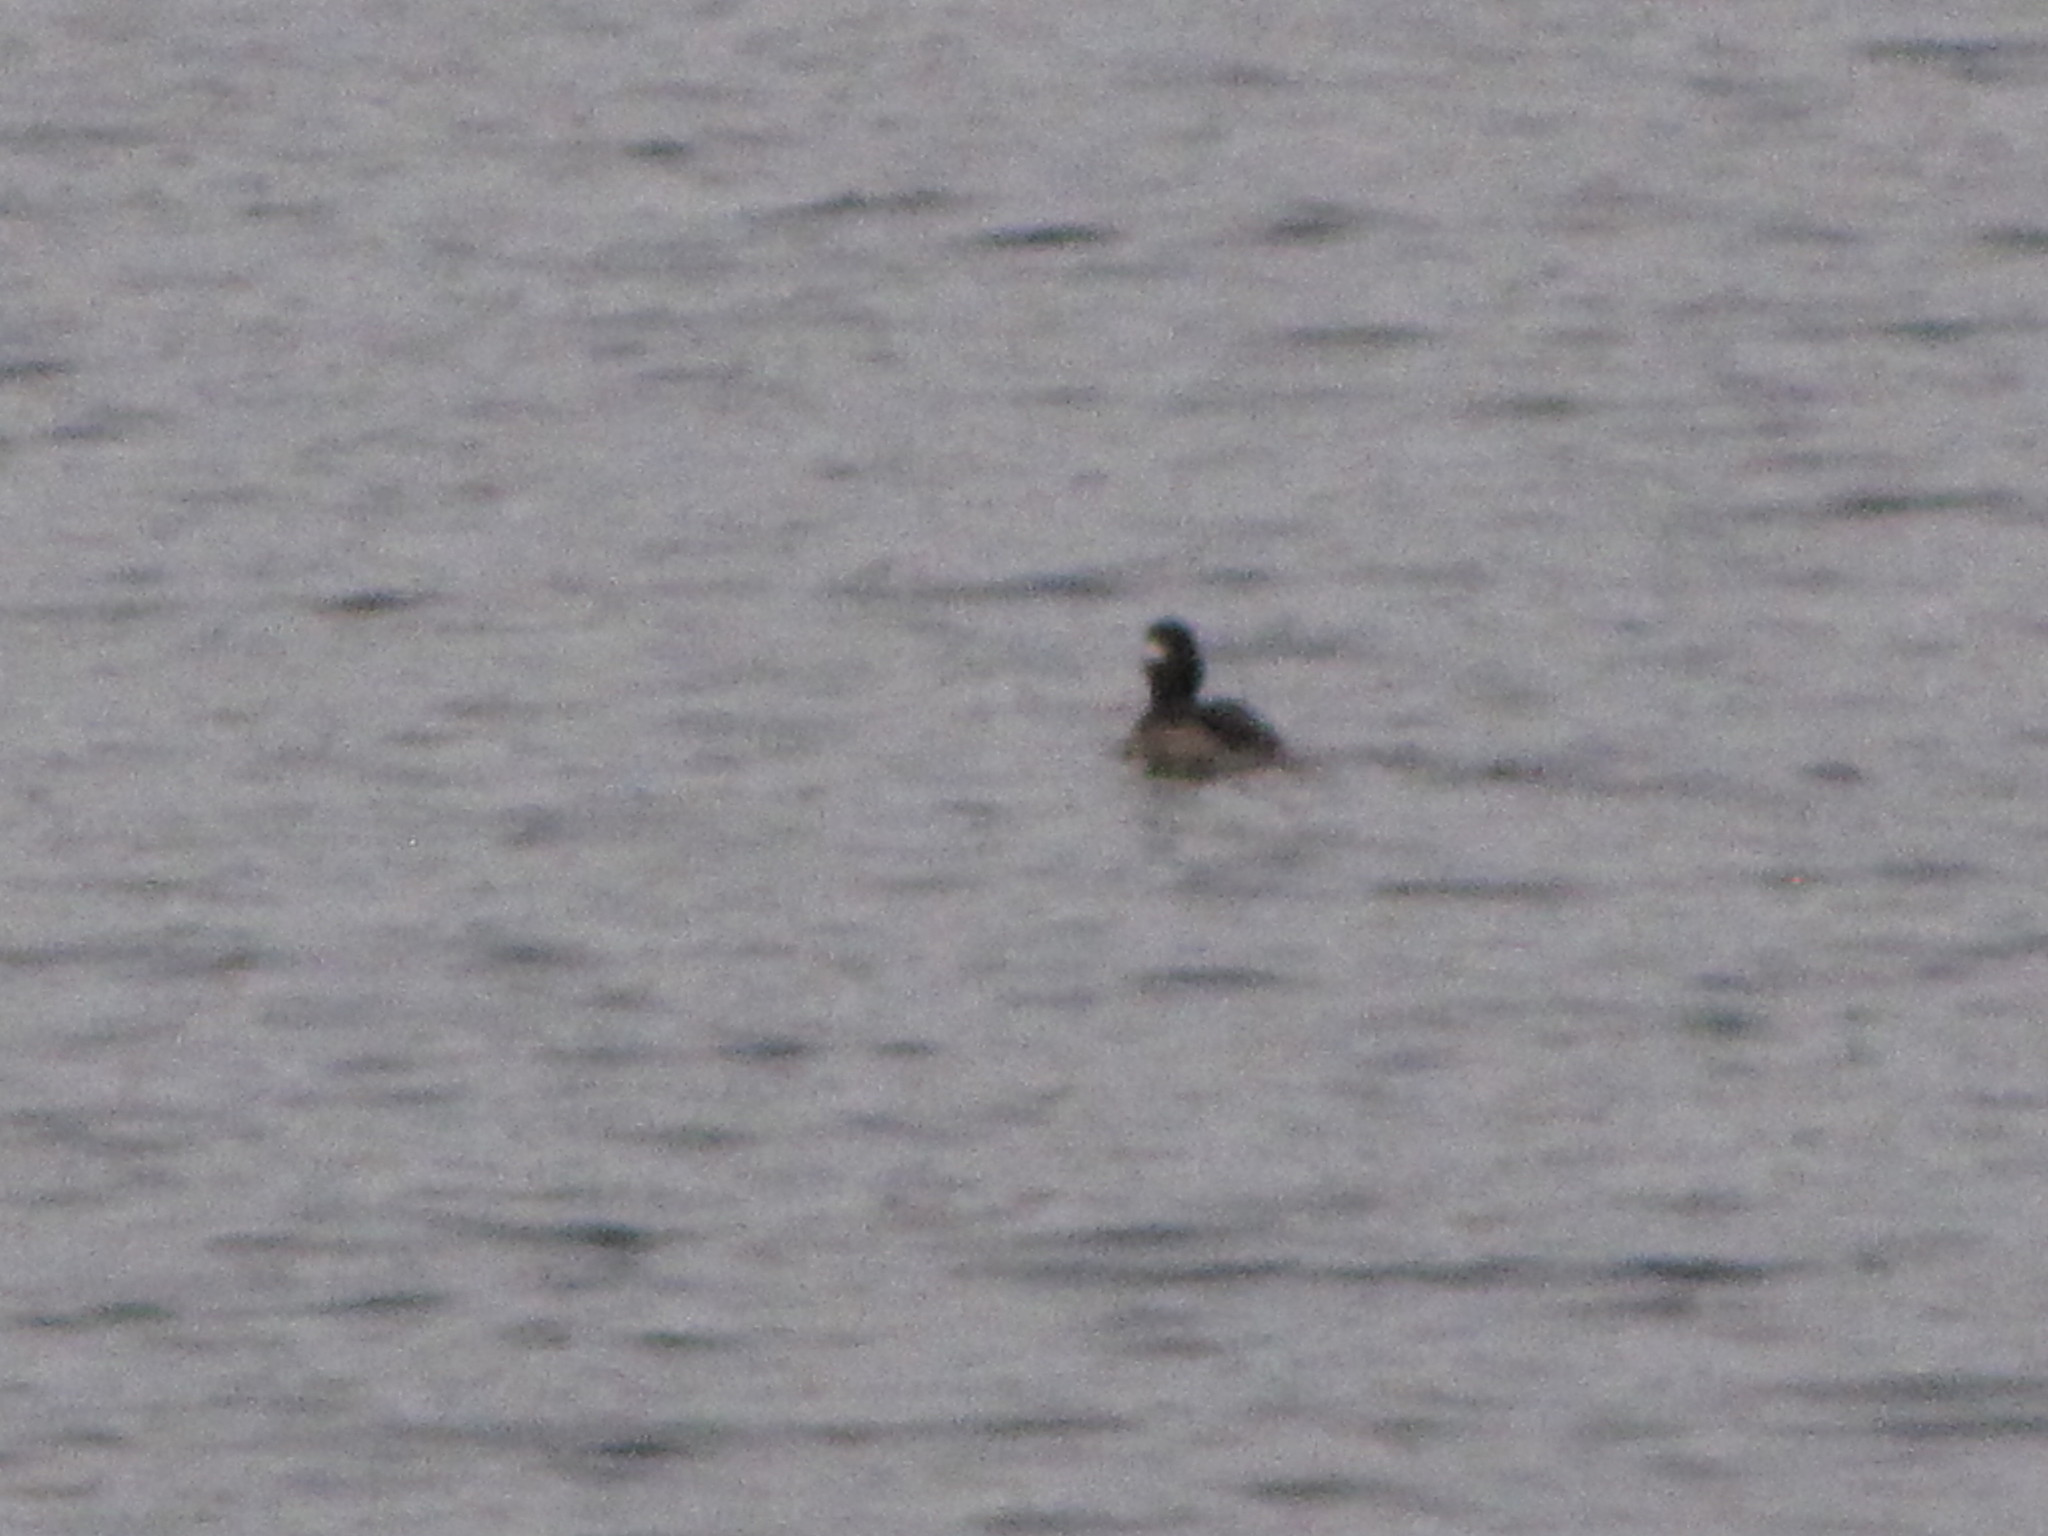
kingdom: Animalia
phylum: Chordata
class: Aves
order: Anseriformes
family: Anatidae
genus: Bucephala
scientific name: Bucephala albeola
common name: Bufflehead
